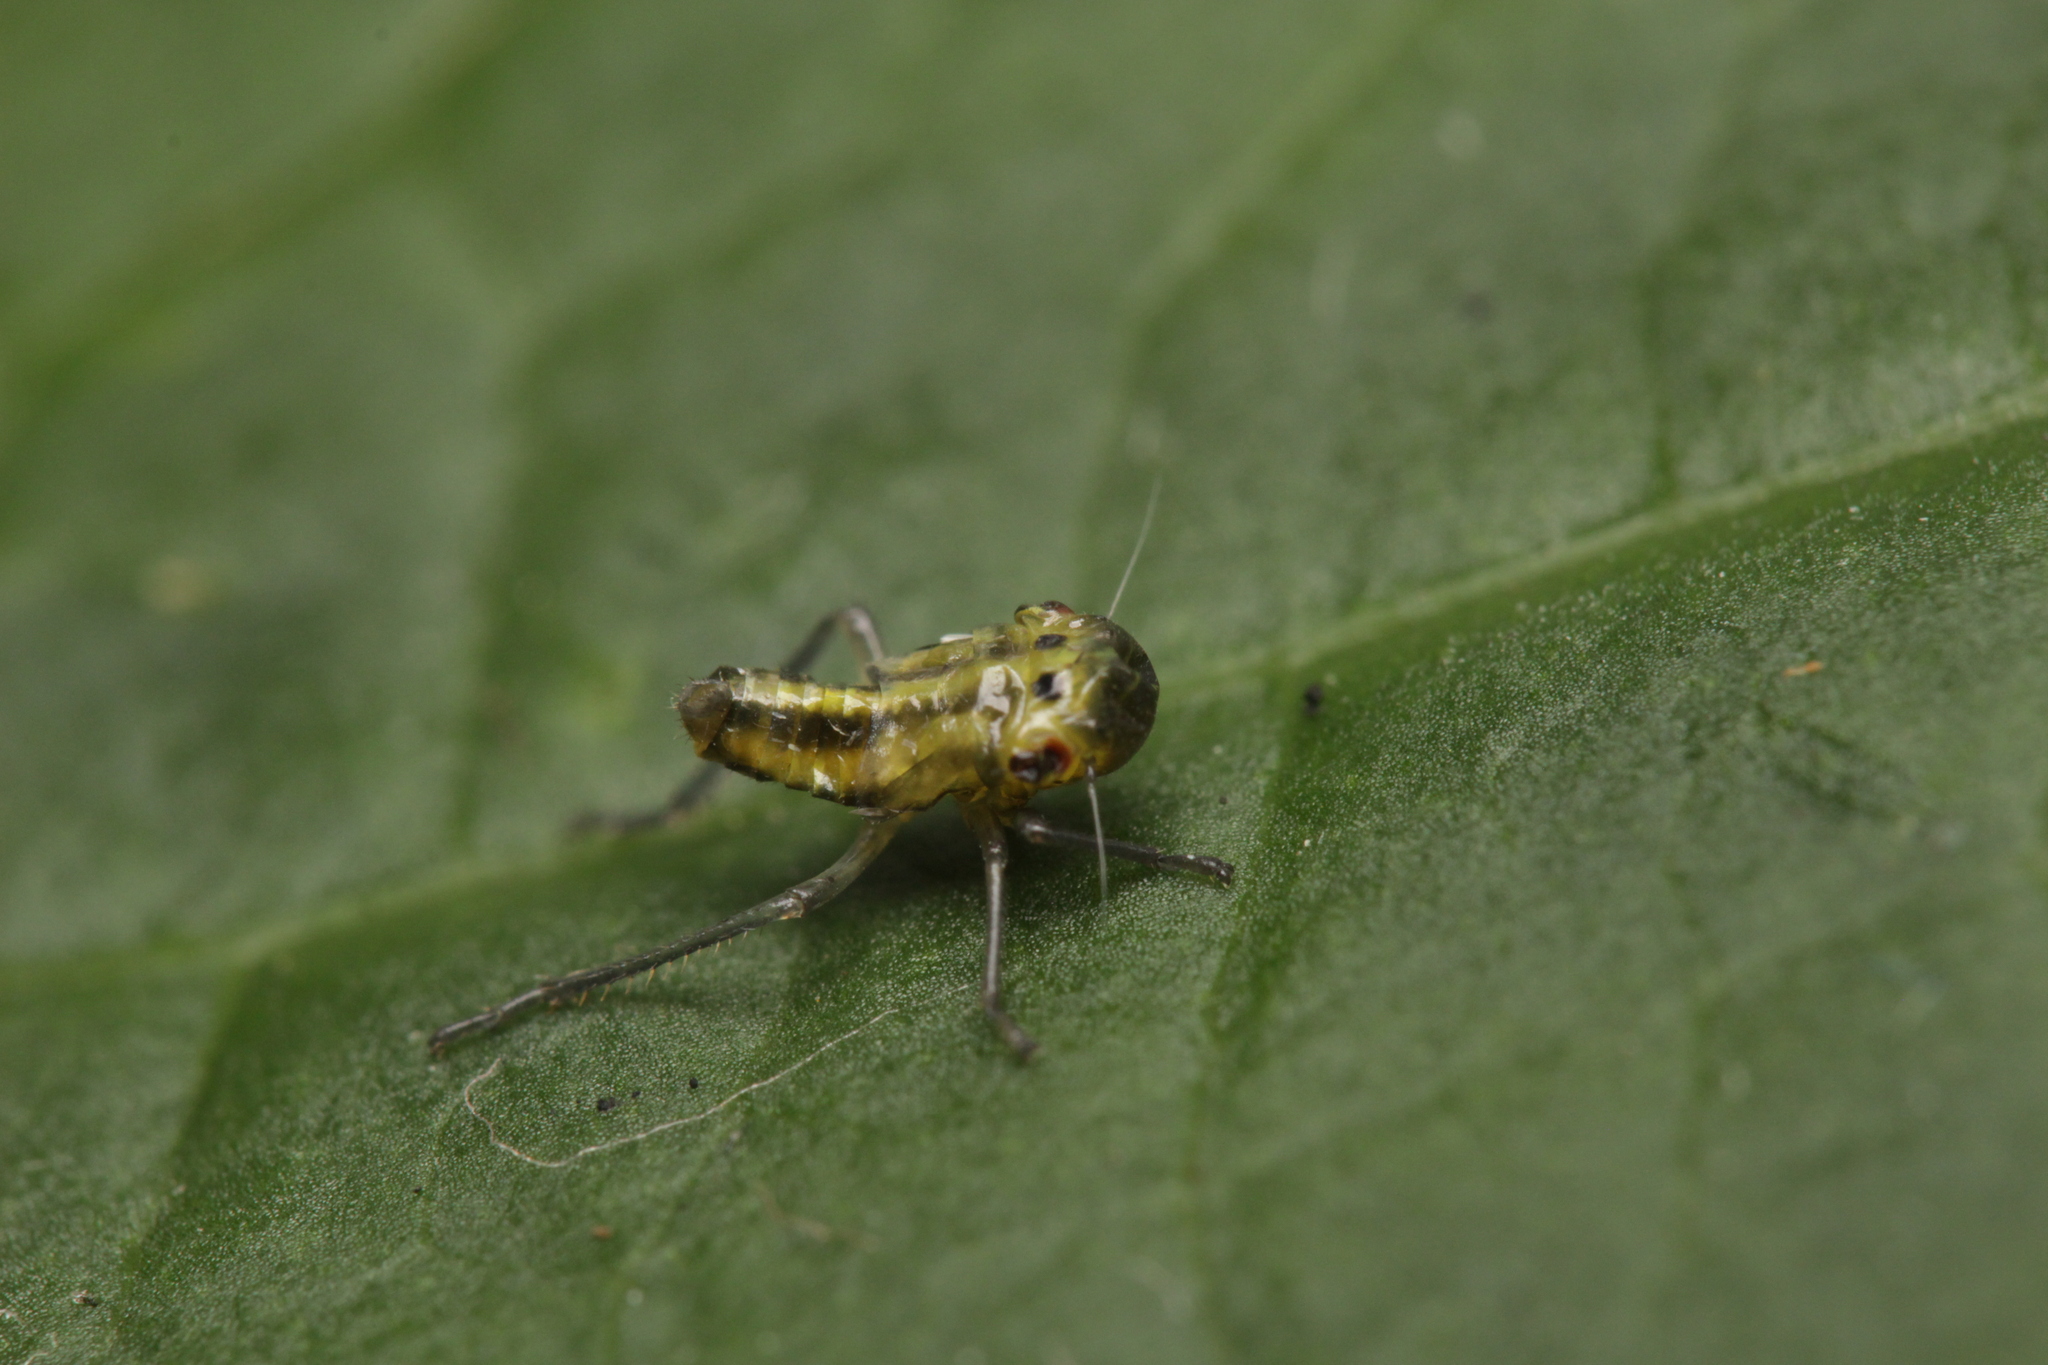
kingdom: Animalia
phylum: Arthropoda
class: Insecta
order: Hemiptera
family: Cicadellidae
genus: Cicadella
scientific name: Cicadella viridis
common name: Leafhopper
